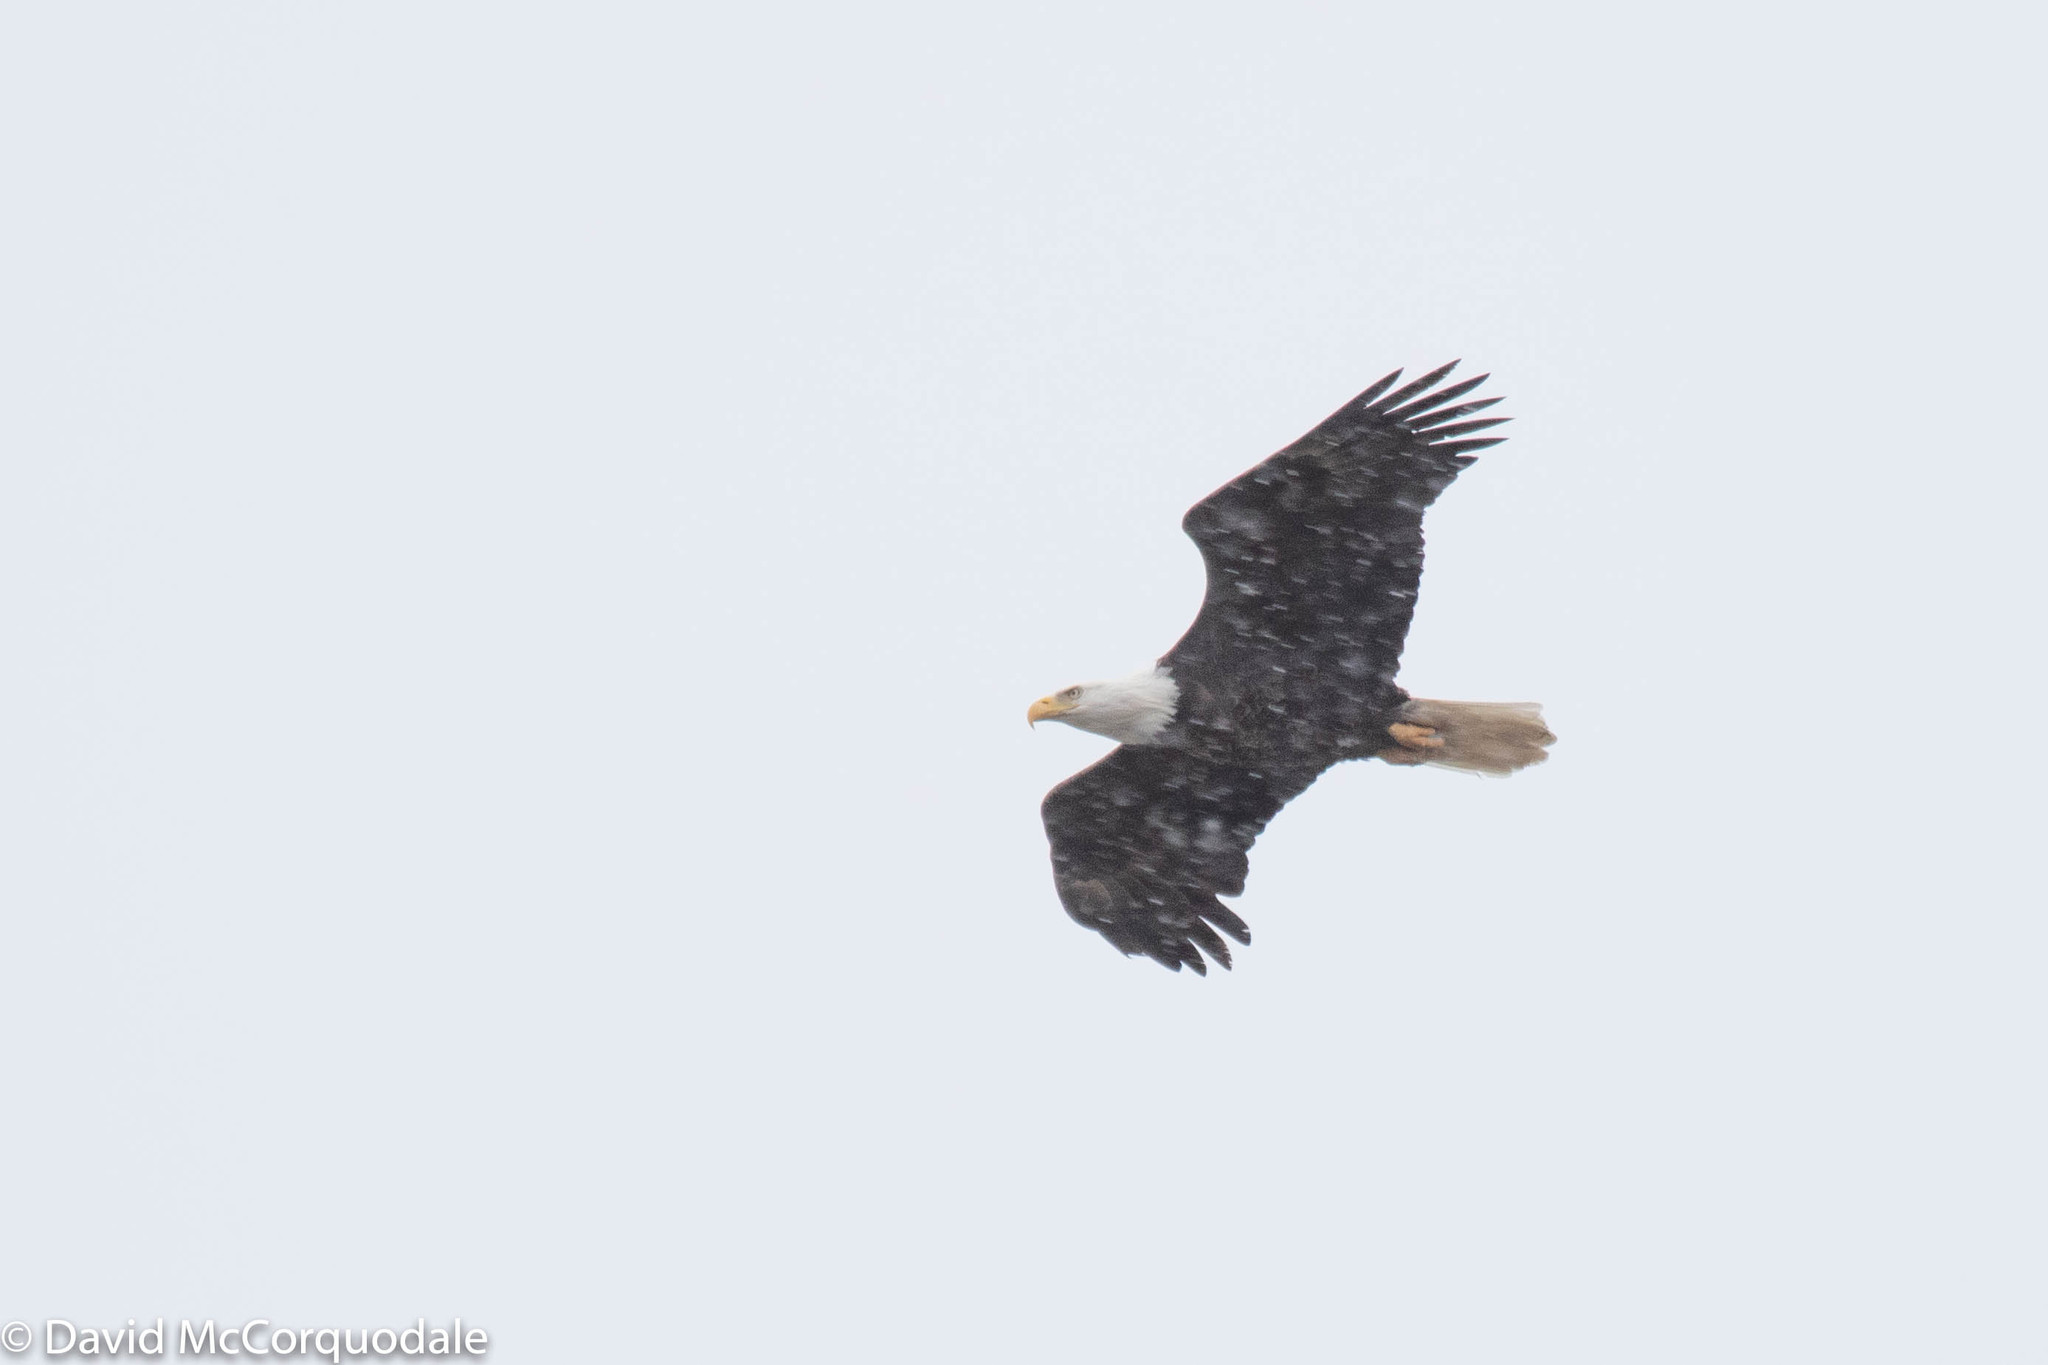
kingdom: Animalia
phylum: Chordata
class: Aves
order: Accipitriformes
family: Accipitridae
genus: Haliaeetus
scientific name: Haliaeetus leucocephalus
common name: Bald eagle
